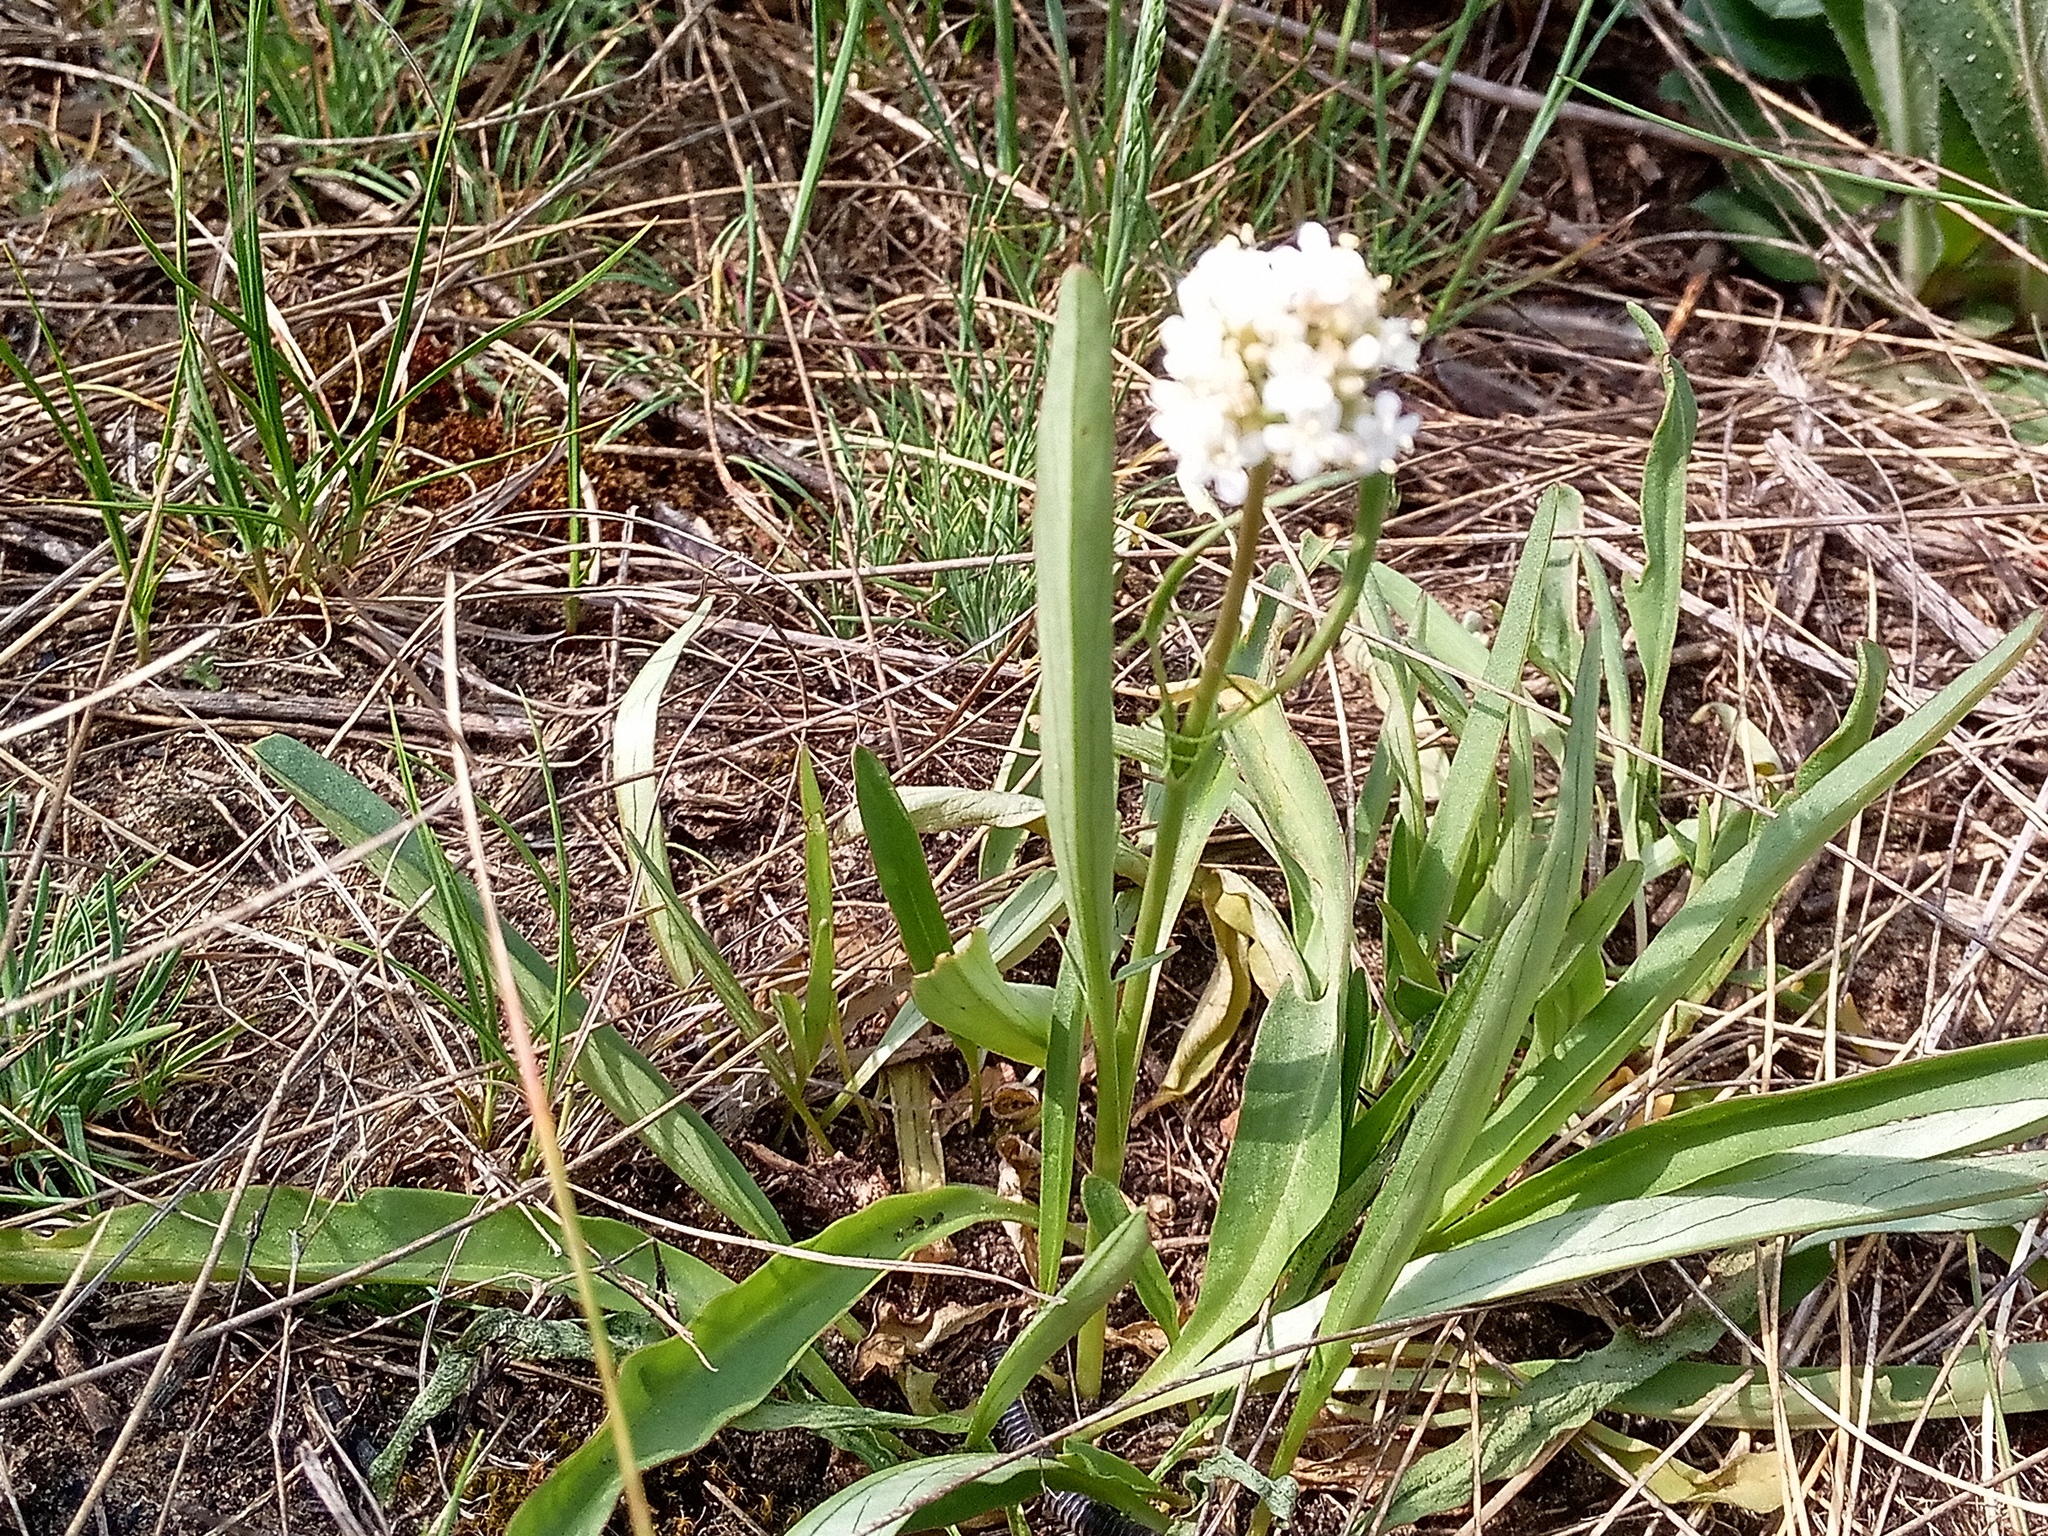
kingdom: Plantae
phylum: Tracheophyta
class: Magnoliopsida
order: Dipsacales
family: Caprifoliaceae
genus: Valeriana
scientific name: Valeriana tuberosa
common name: Tuberous valerian
